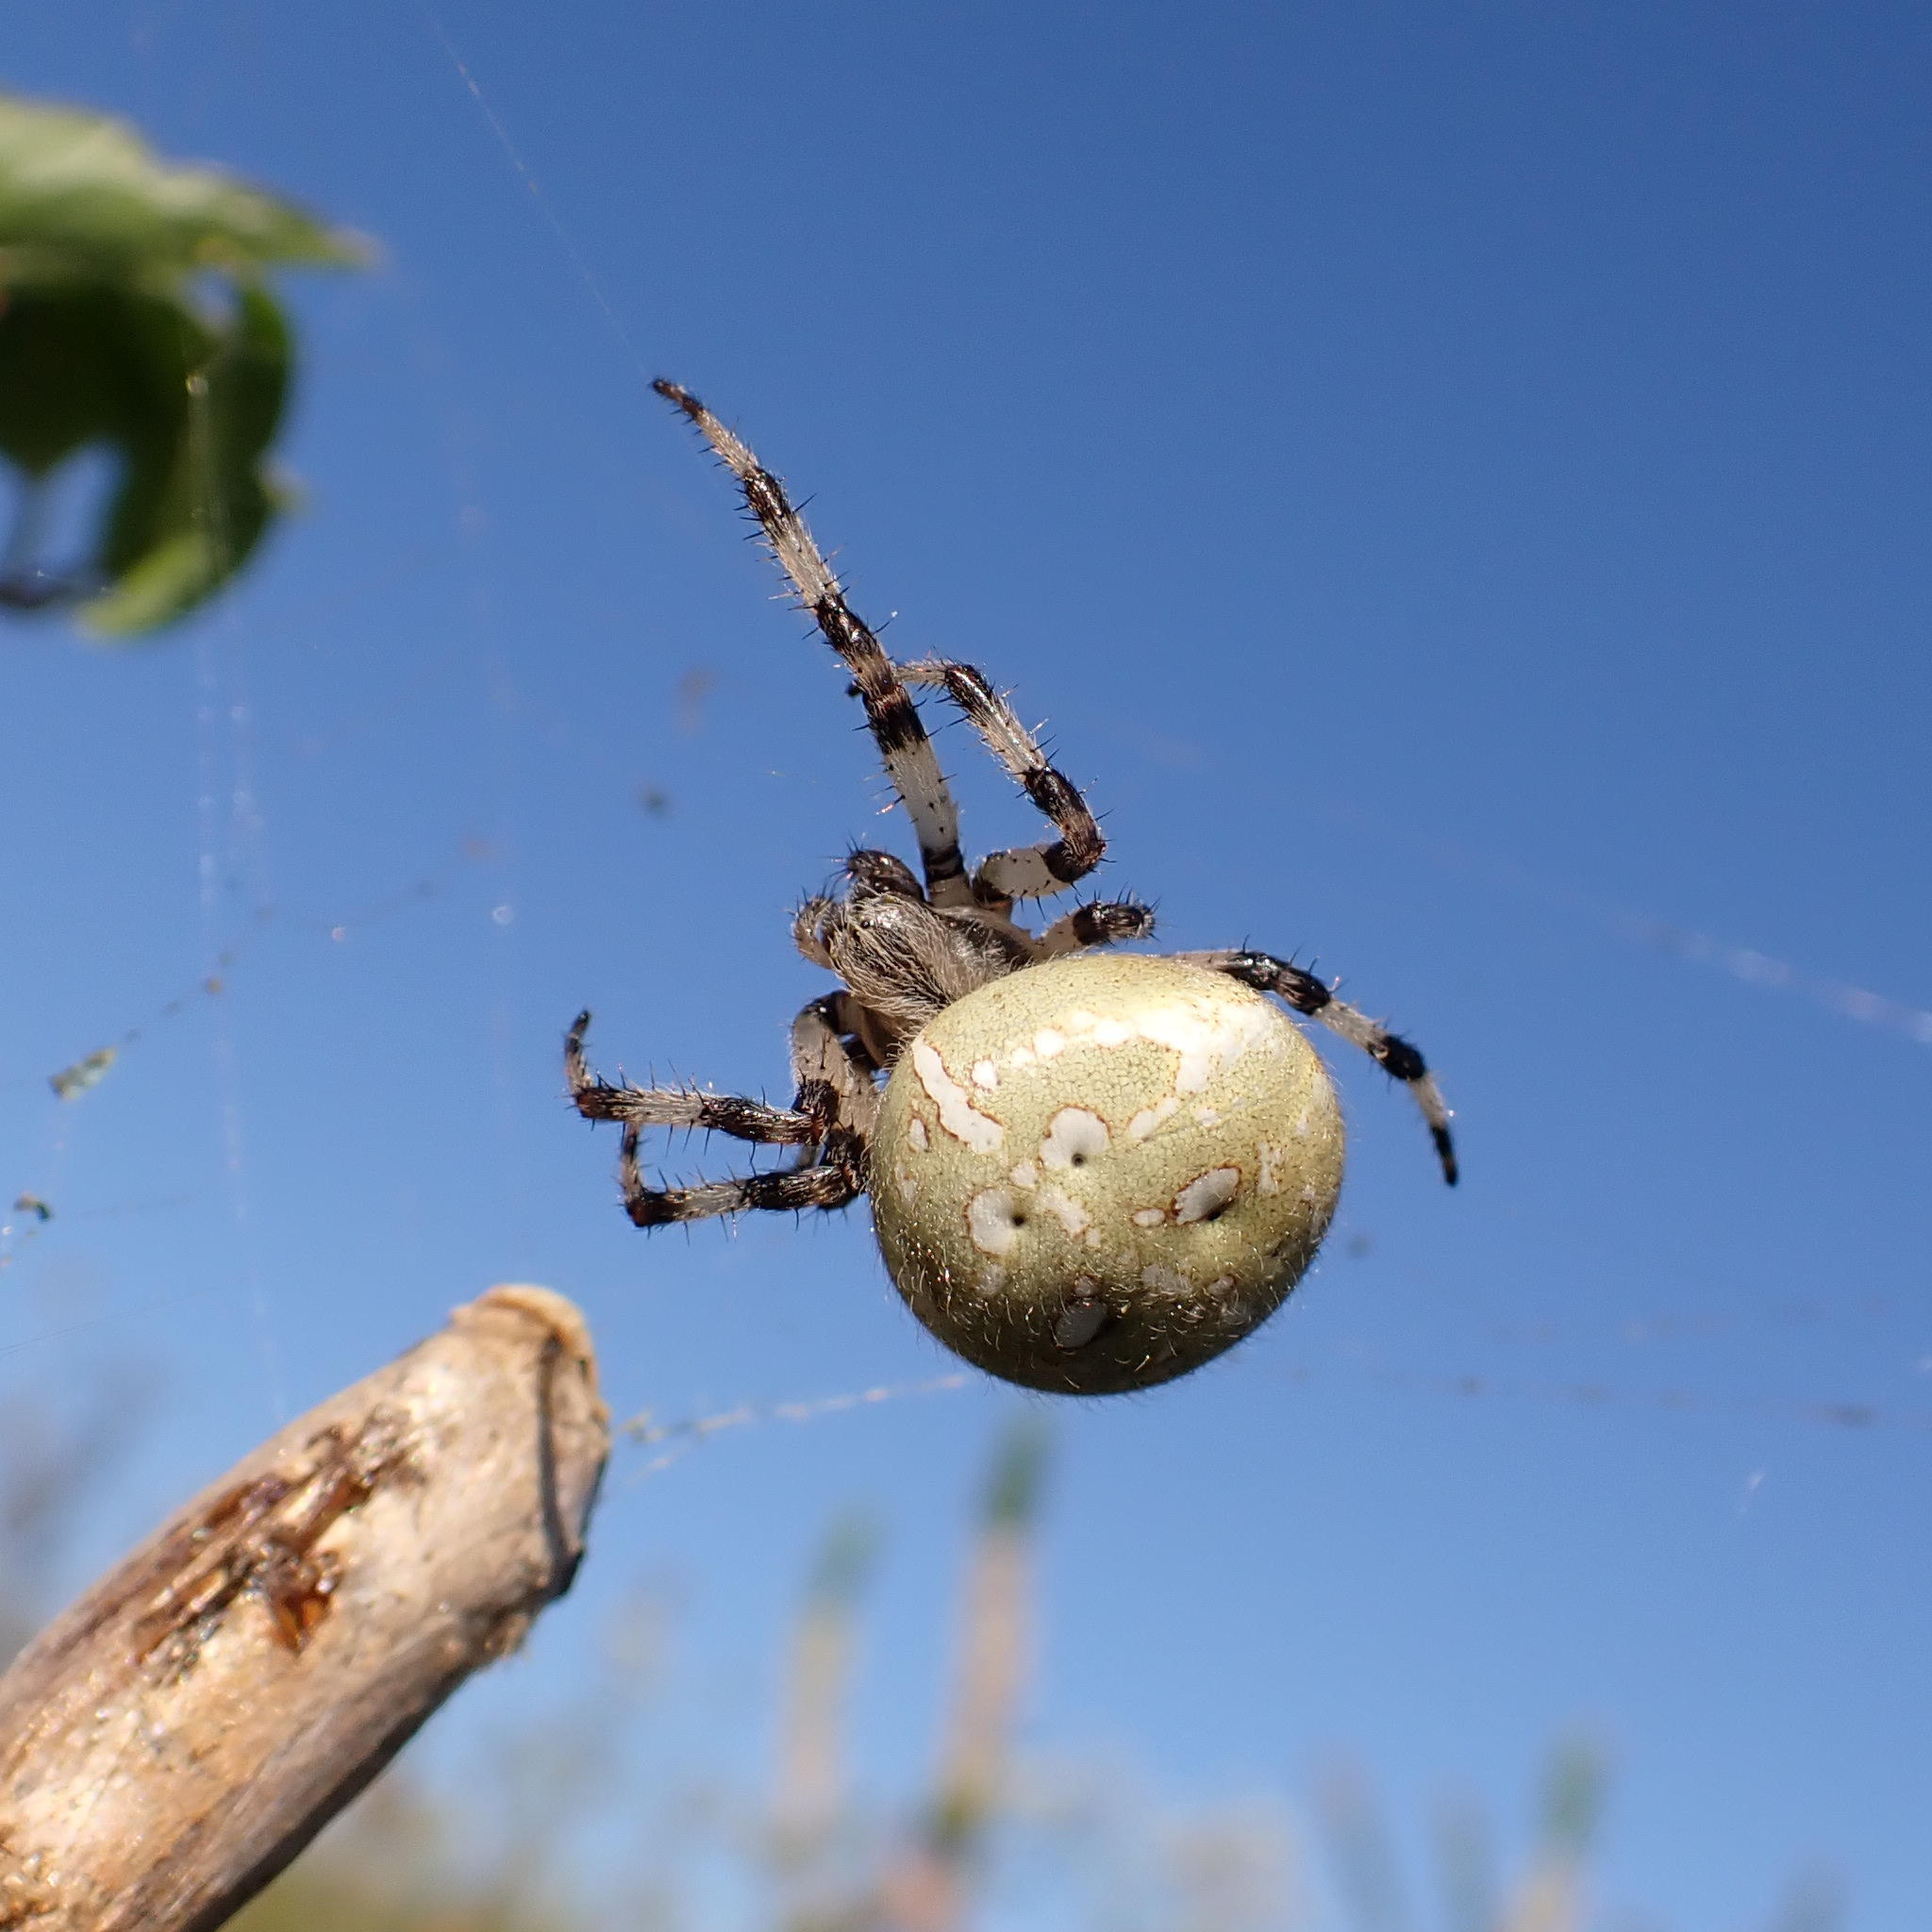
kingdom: Animalia
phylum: Arthropoda
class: Arachnida
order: Araneae
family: Araneidae
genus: Araneus
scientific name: Araneus quadratus
